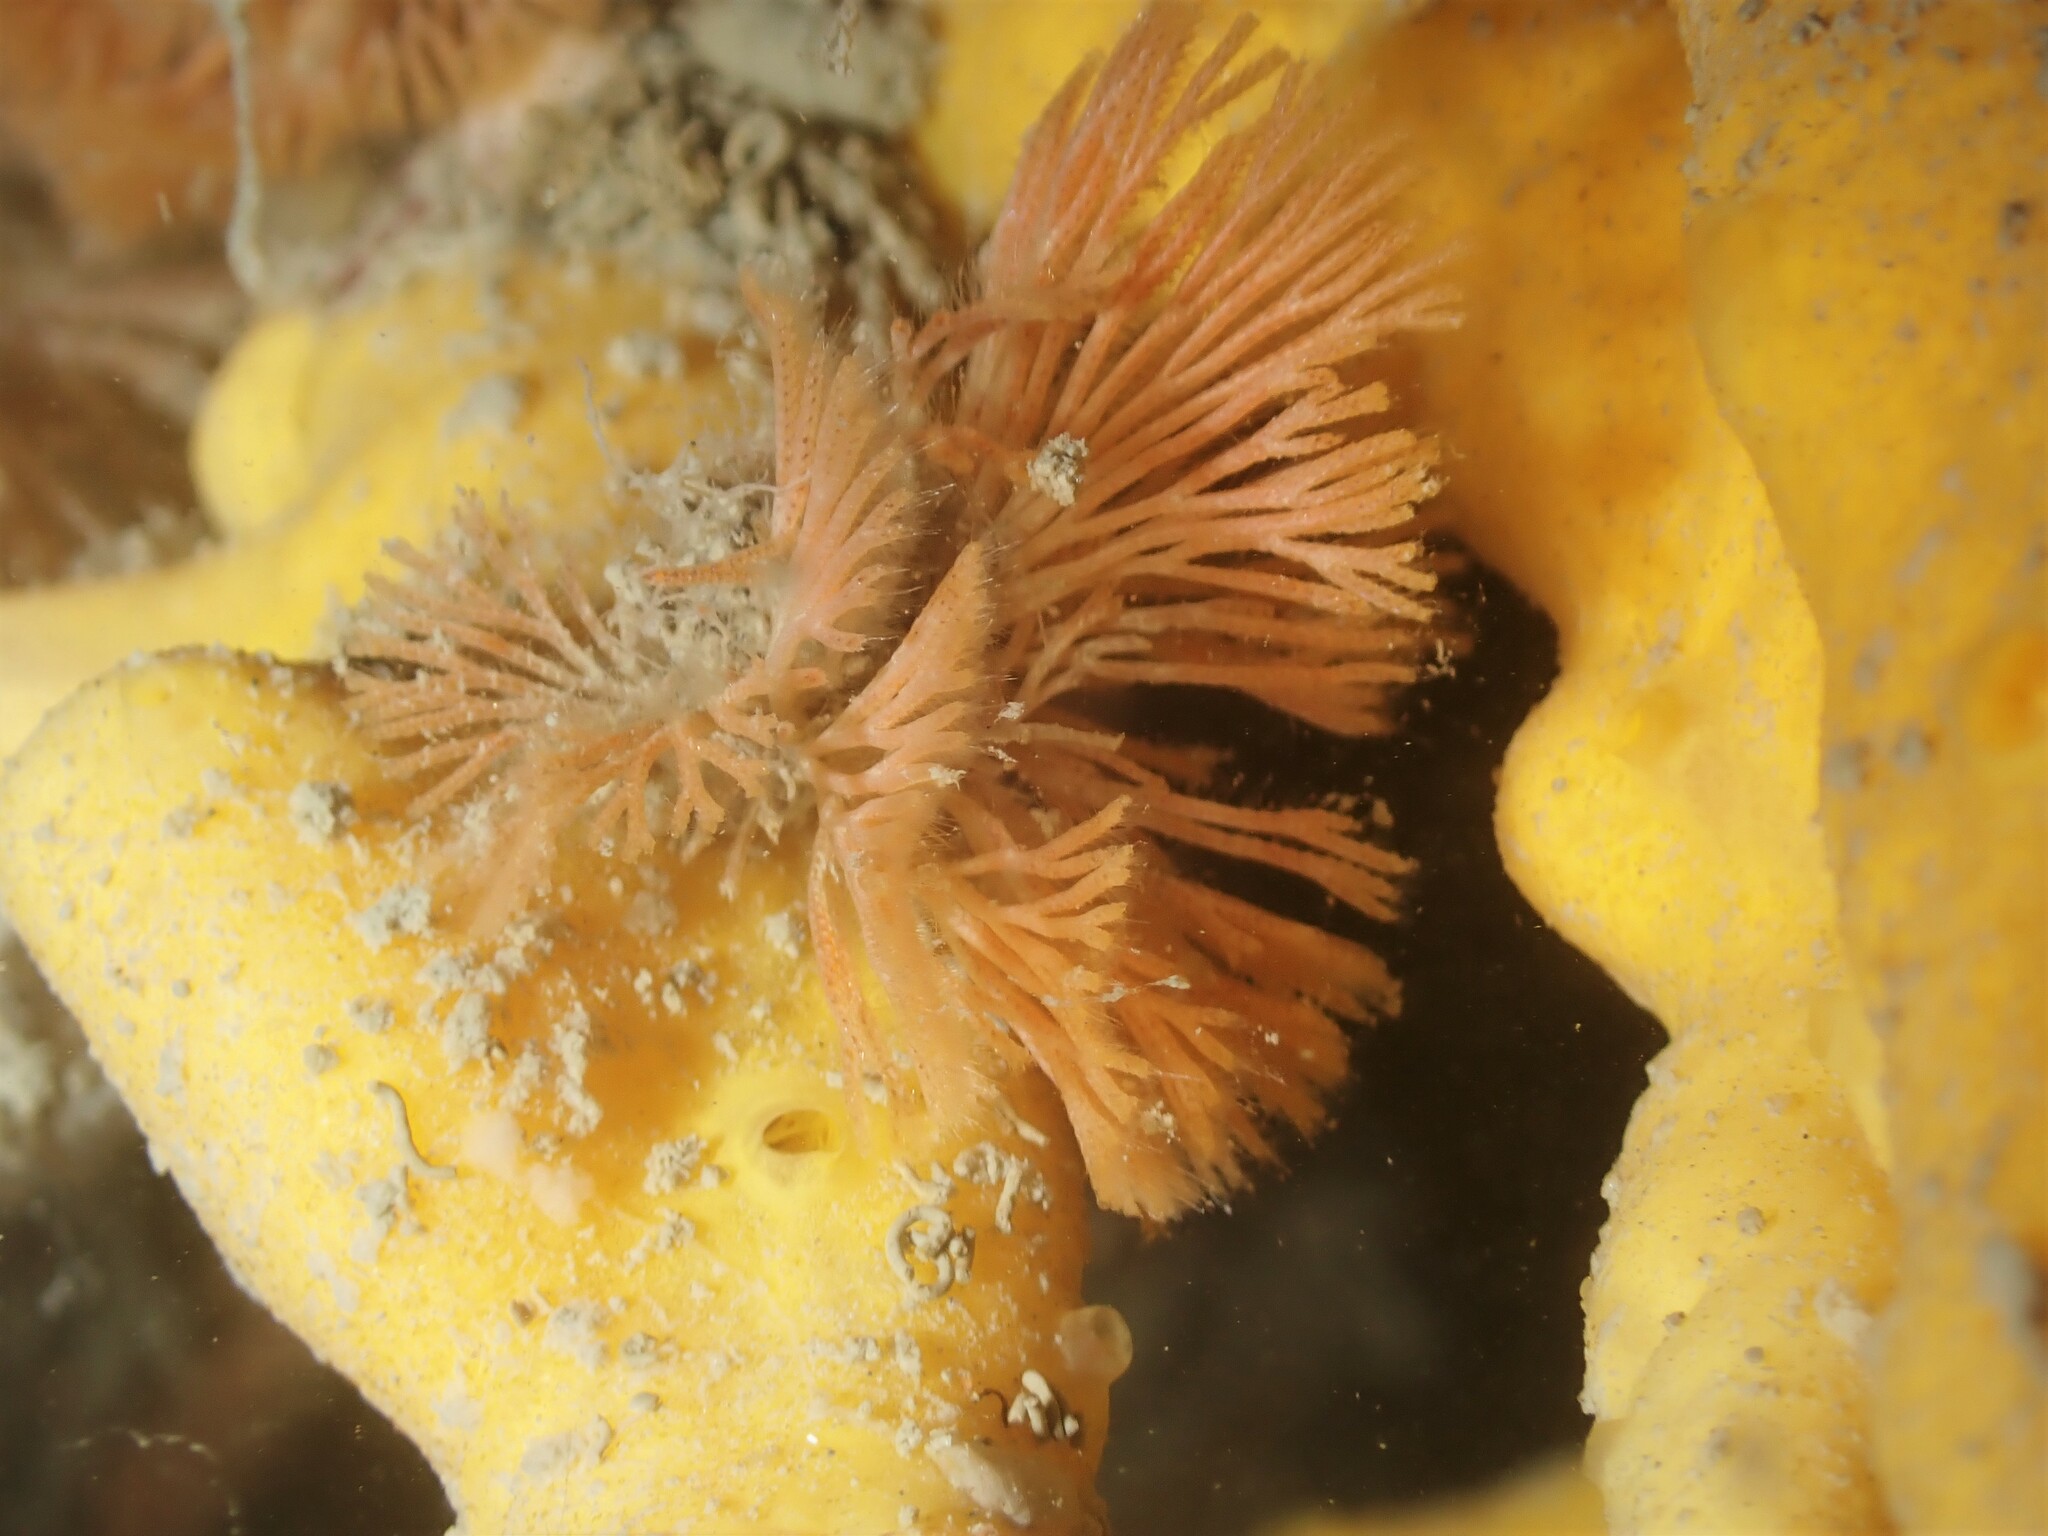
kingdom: Animalia
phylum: Bryozoa
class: Gymnolaemata
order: Cheilostomatida
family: Candidae
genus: Caberea
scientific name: Caberea zelandica
